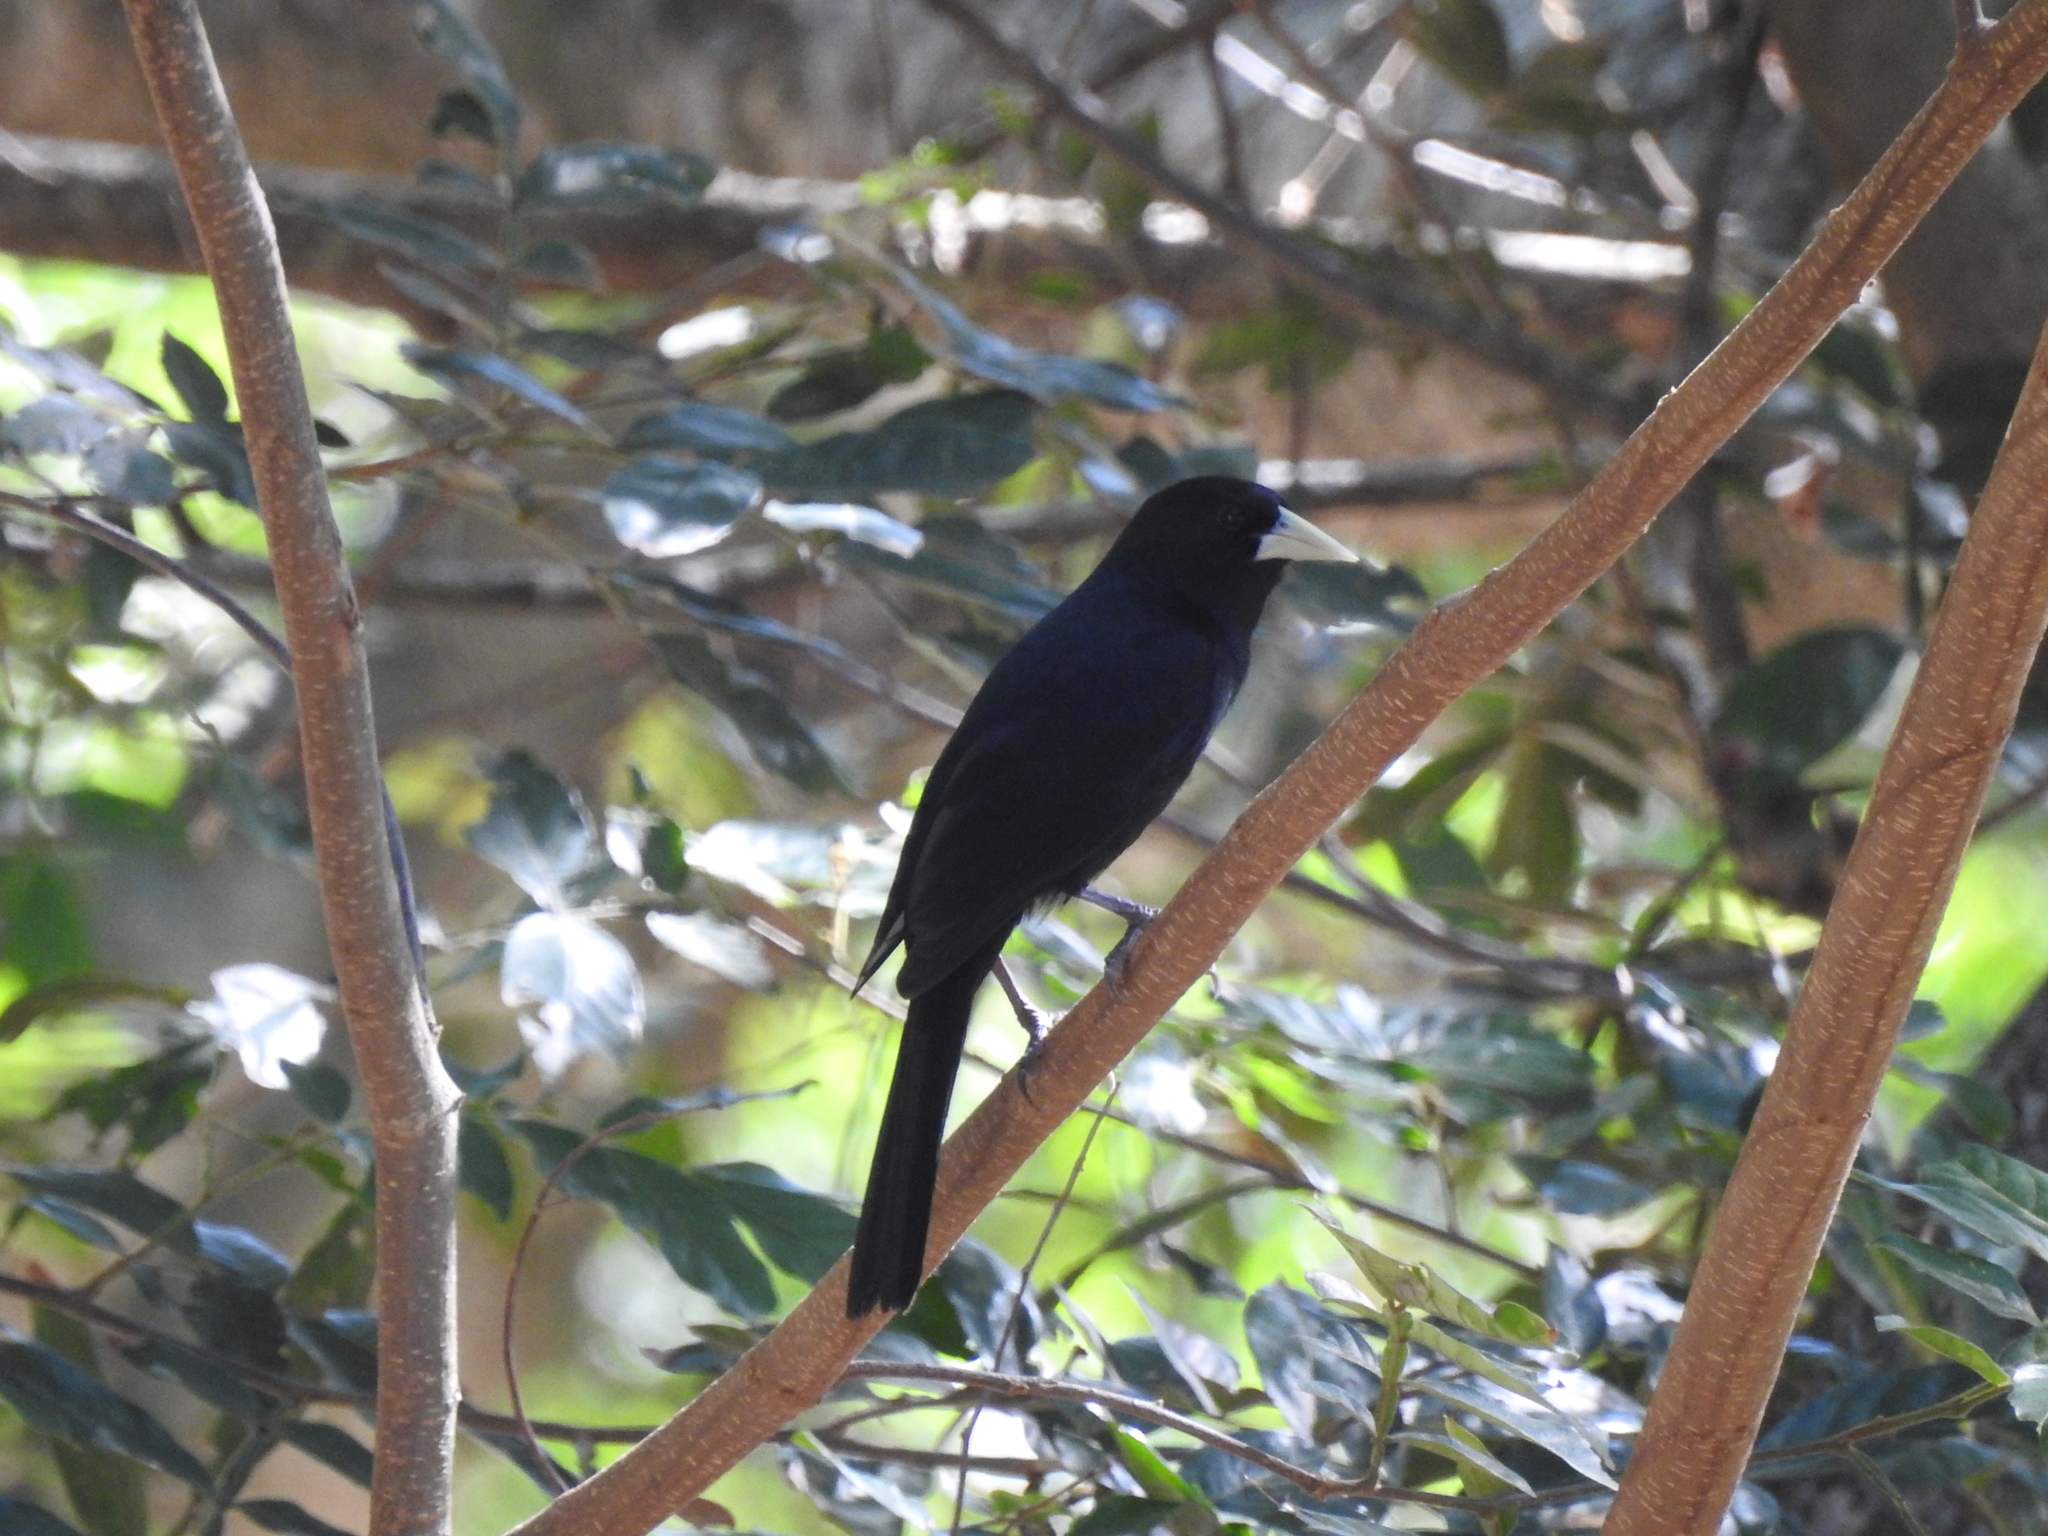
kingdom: Animalia
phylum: Chordata
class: Aves
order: Passeriformes
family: Icteridae
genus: Cacicus
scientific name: Cacicus solitarius
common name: Solitary cacique
